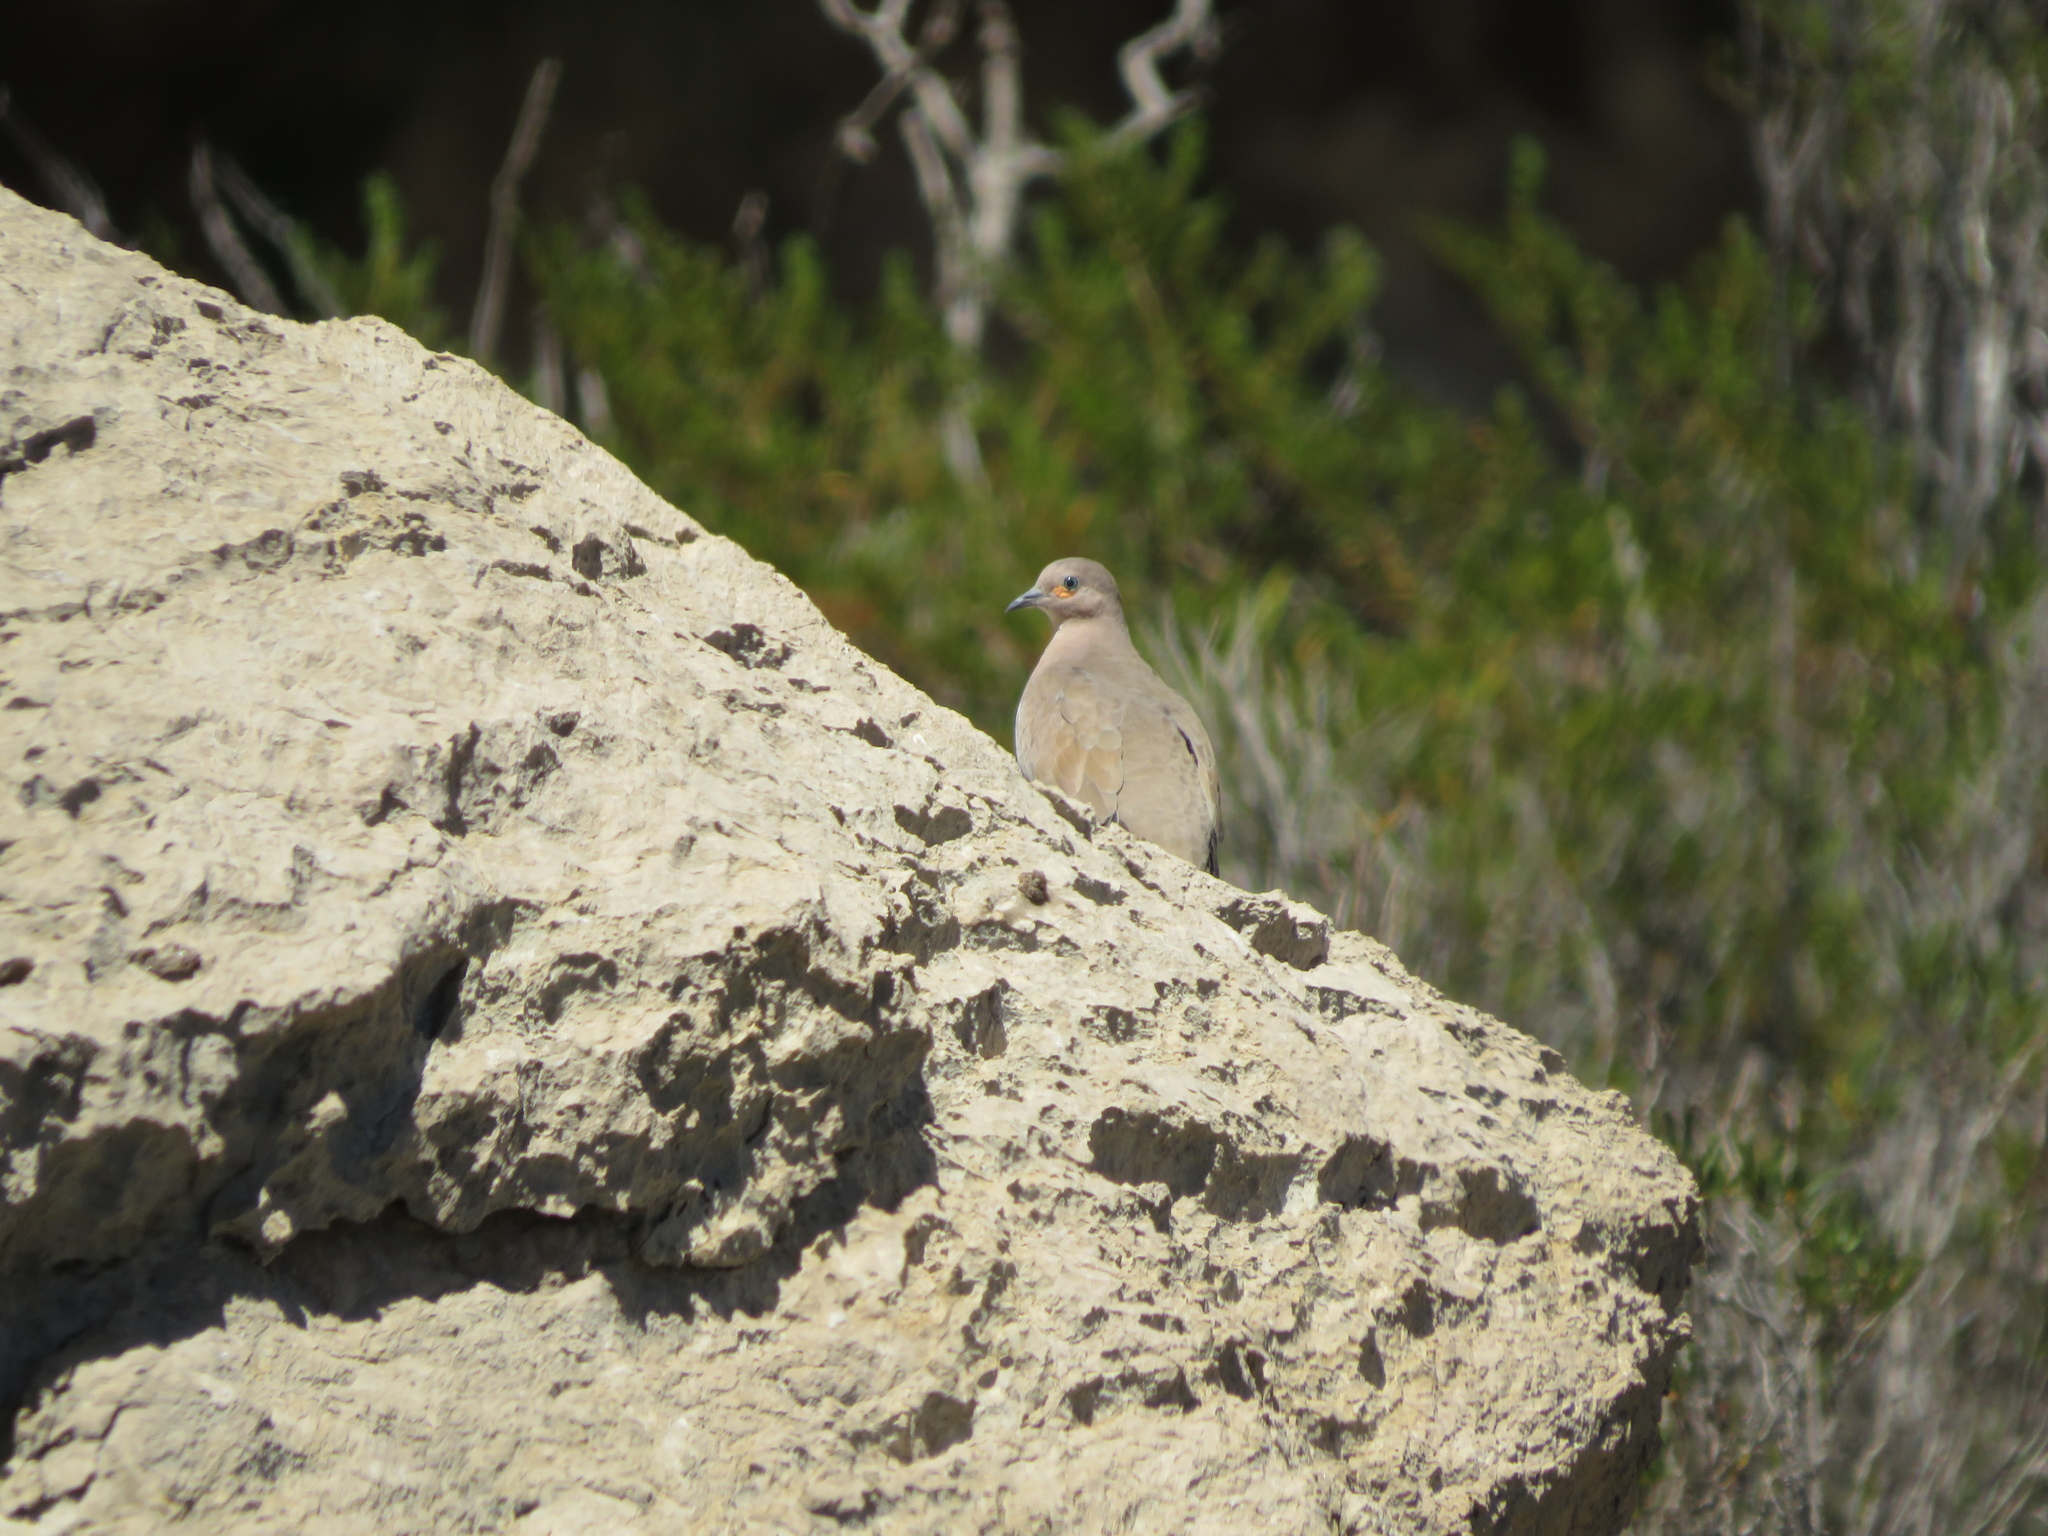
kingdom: Animalia
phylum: Chordata
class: Aves
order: Columbiformes
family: Columbidae
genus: Metriopelia
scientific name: Metriopelia melanoptera
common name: Black-winged ground dove
